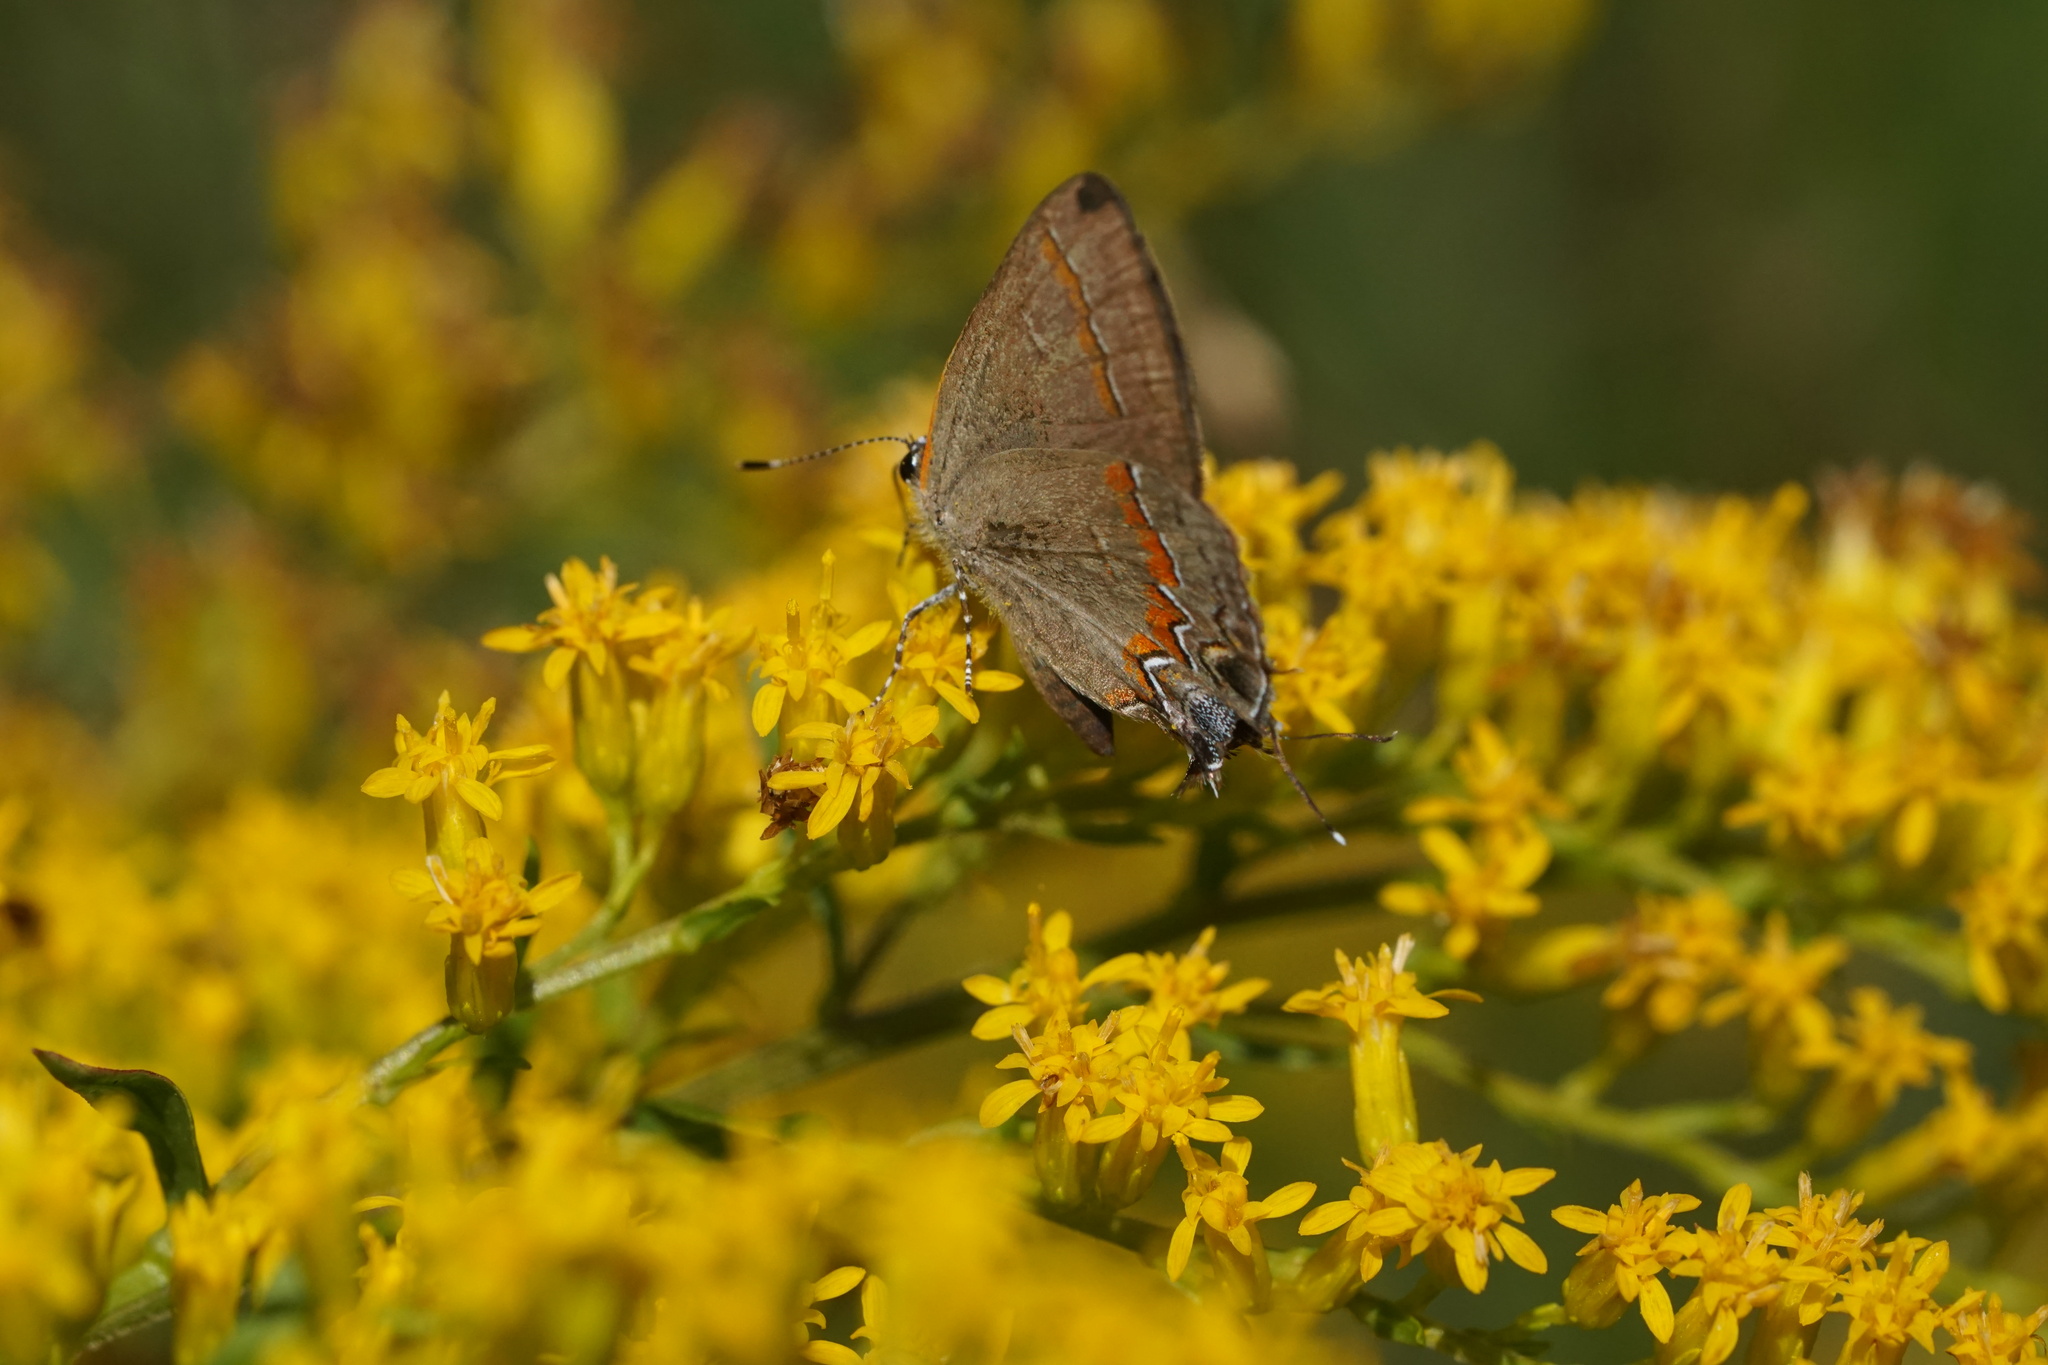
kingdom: Animalia
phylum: Arthropoda
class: Insecta
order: Lepidoptera
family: Lycaenidae
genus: Calycopis
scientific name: Calycopis cecrops
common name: Red-banded hairstreak
